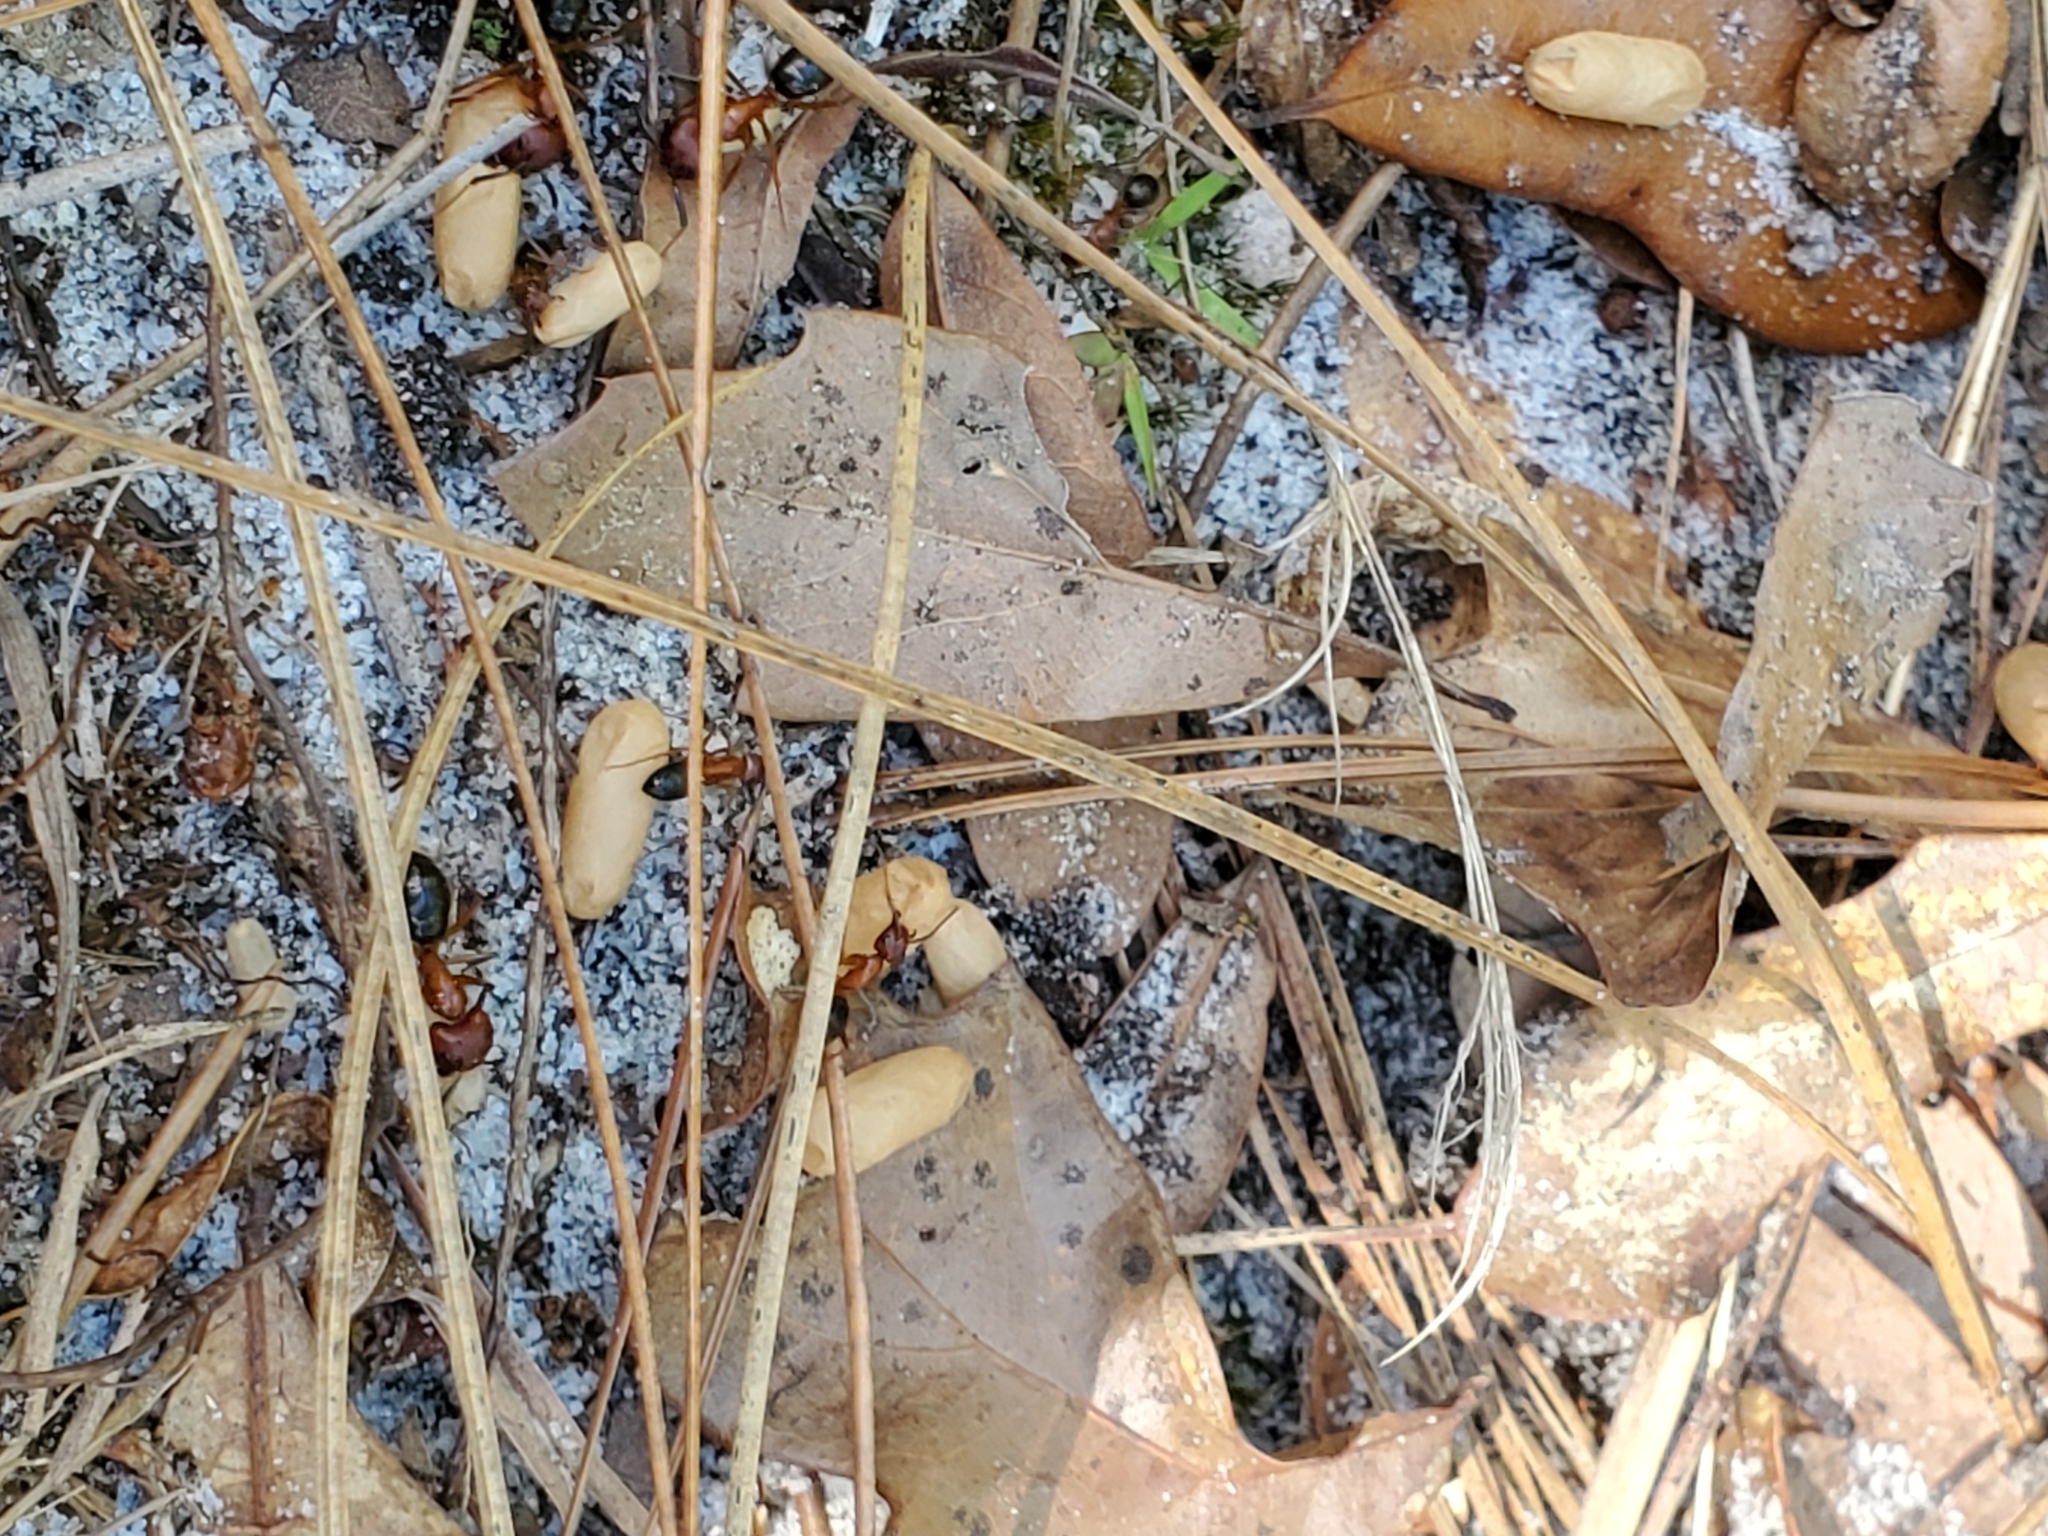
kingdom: Animalia
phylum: Arthropoda
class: Insecta
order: Hymenoptera
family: Formicidae
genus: Camponotus
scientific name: Camponotus floridanus
